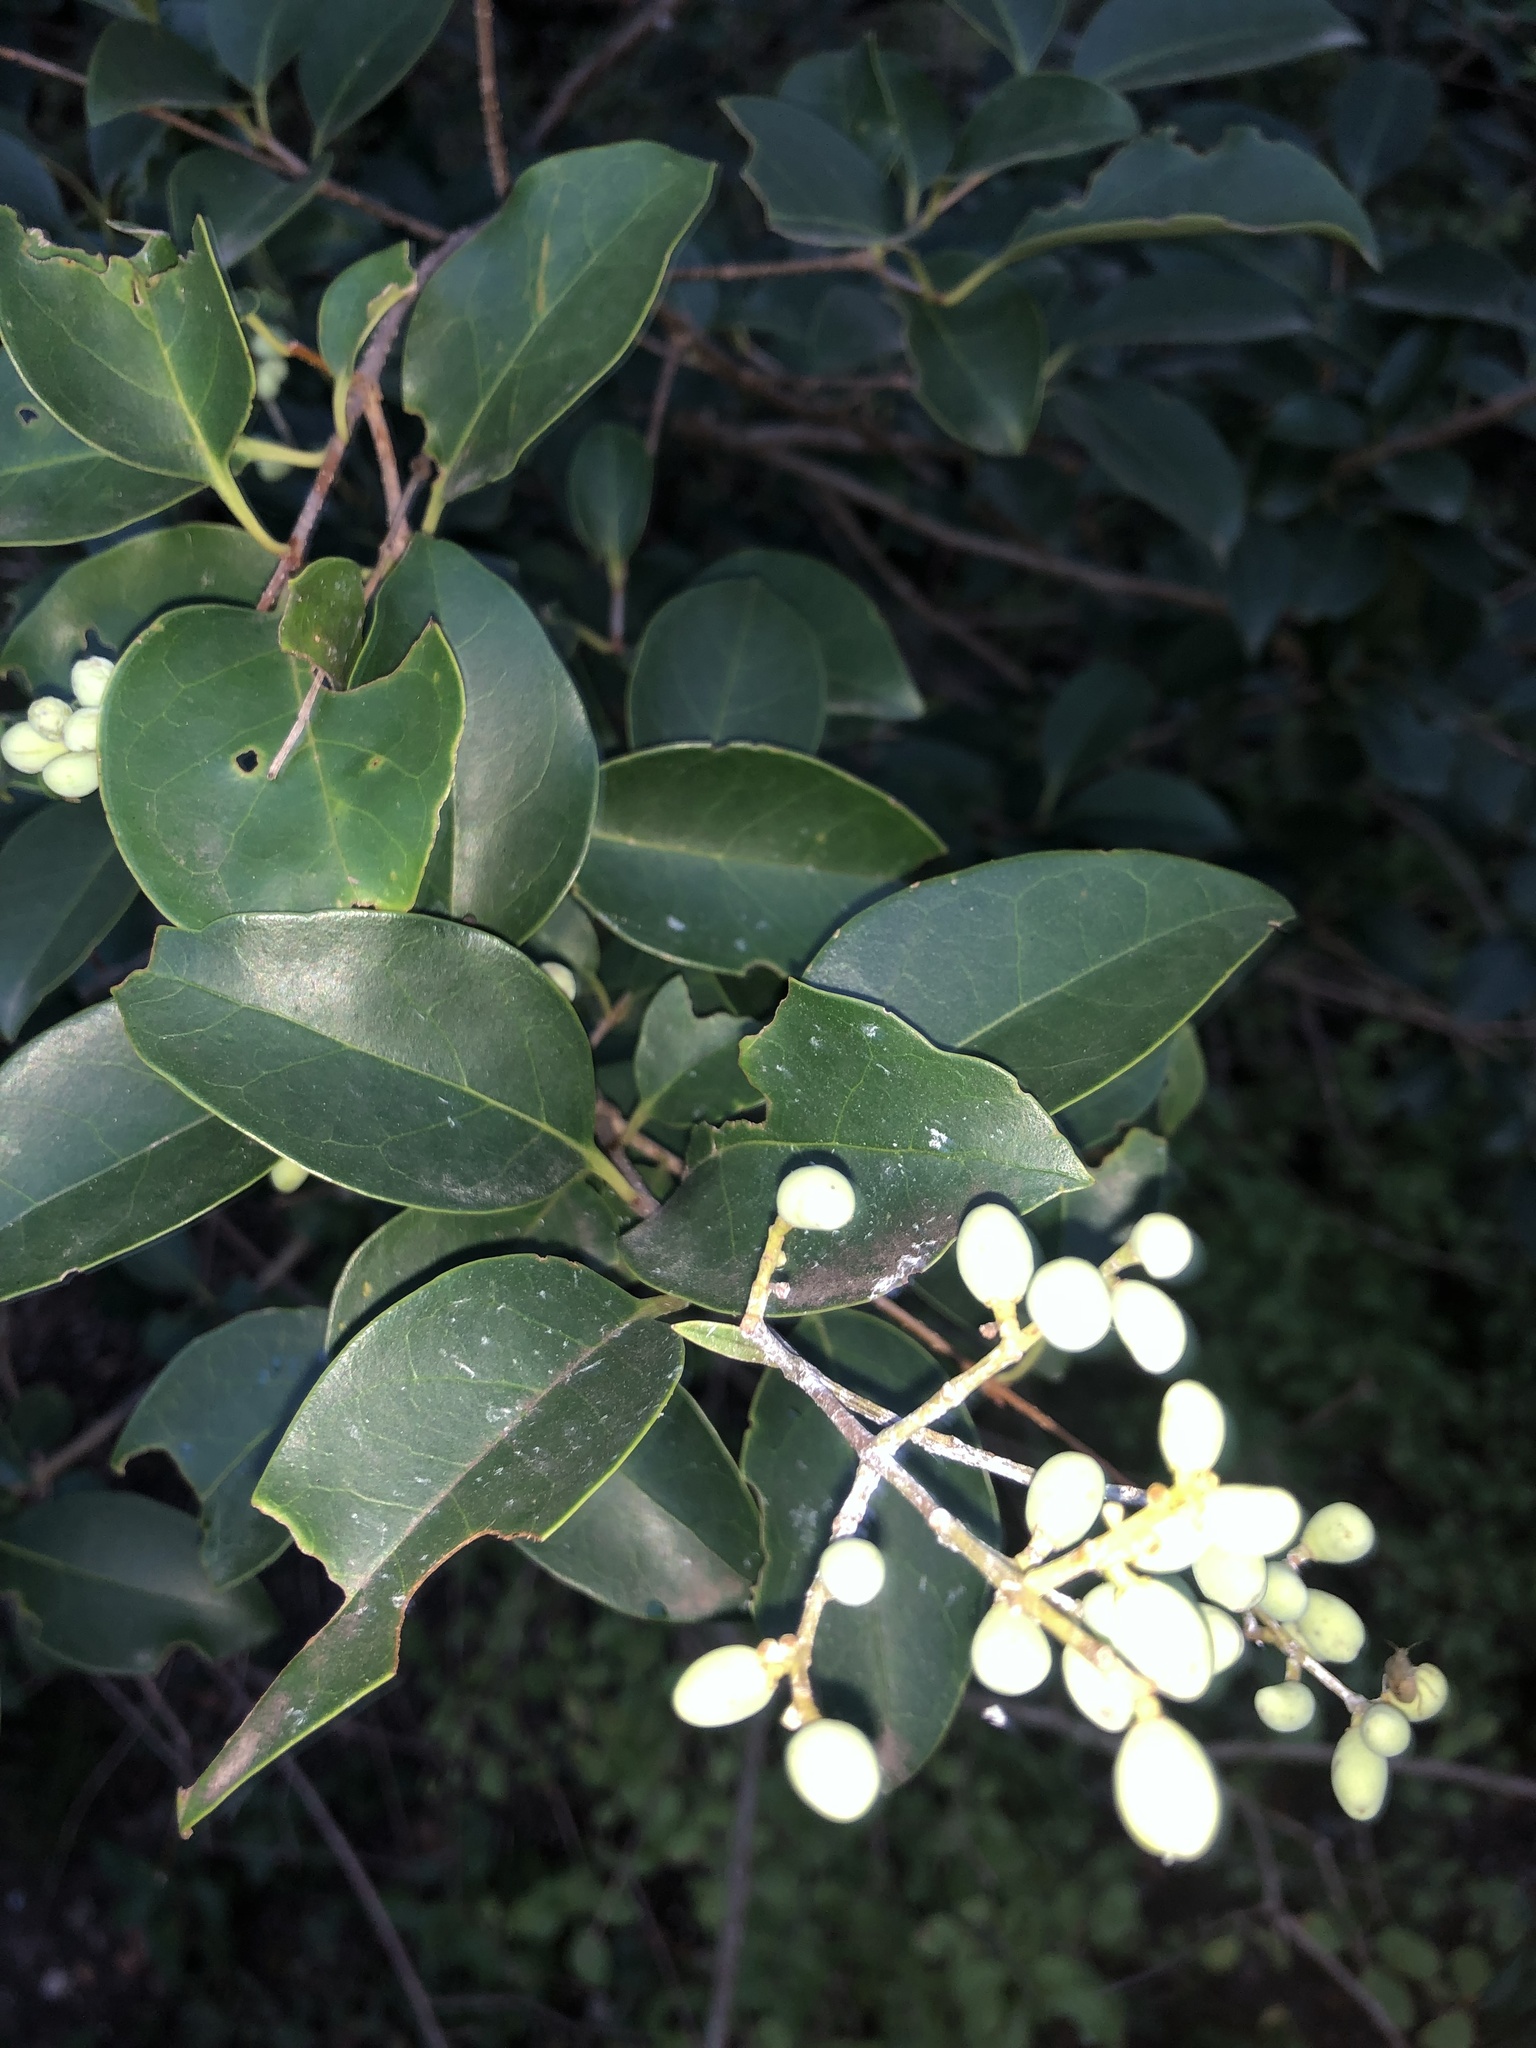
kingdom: Plantae
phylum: Tracheophyta
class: Magnoliopsida
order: Lamiales
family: Oleaceae
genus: Ligustrum
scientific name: Ligustrum lucidum
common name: Glossy privet
